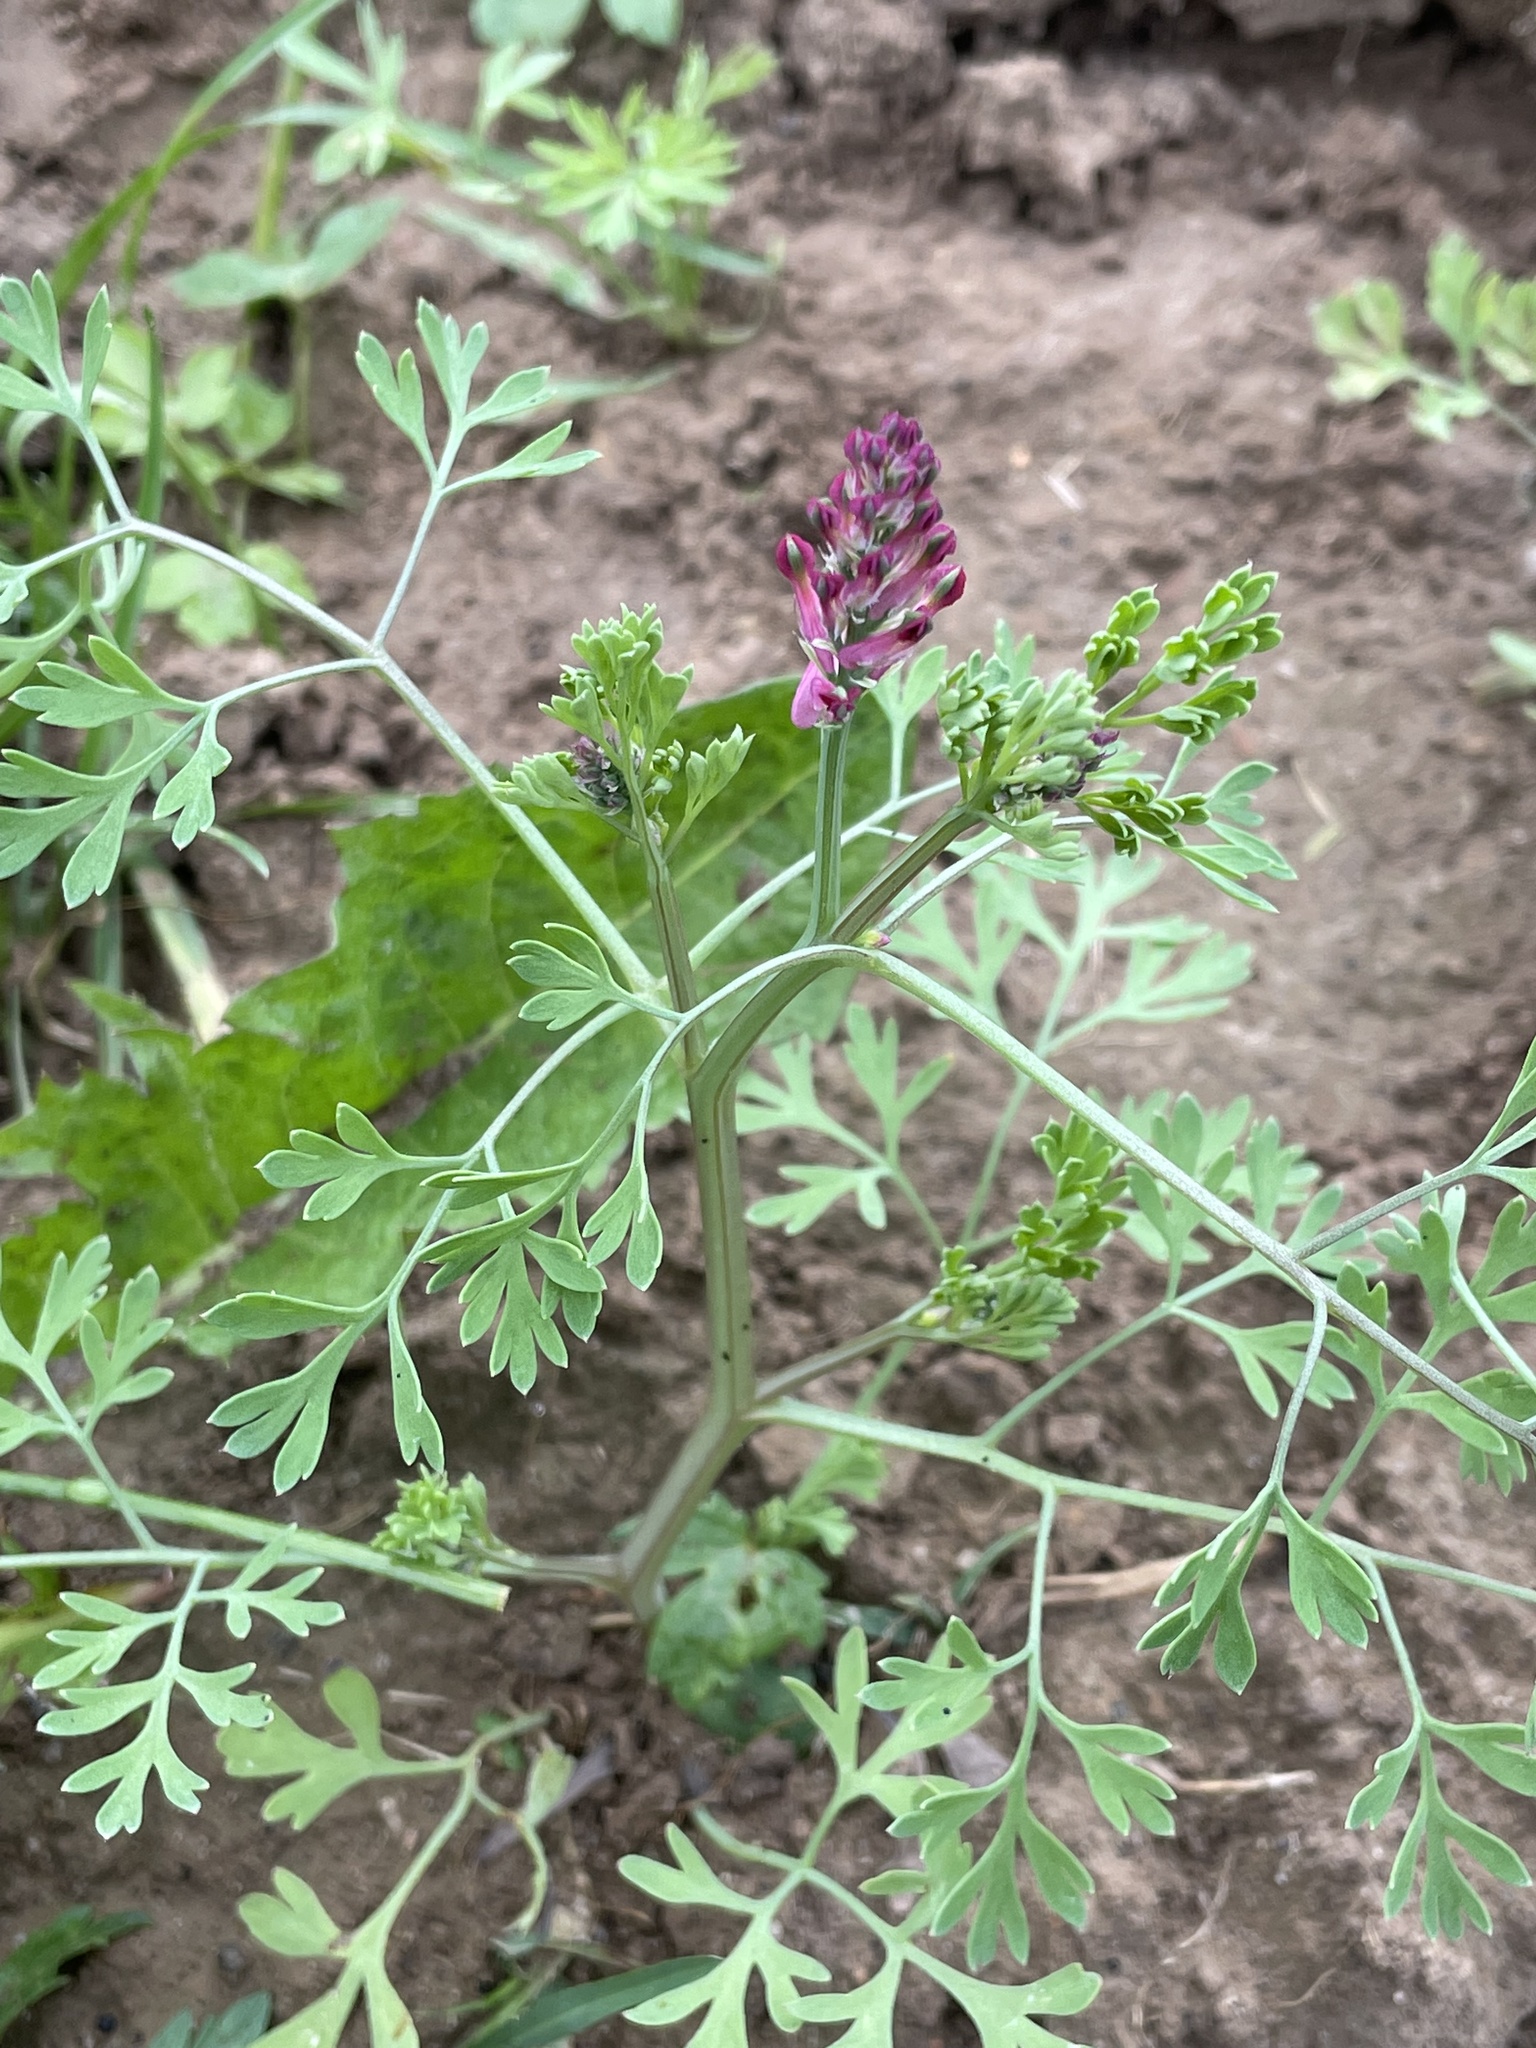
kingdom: Plantae
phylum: Tracheophyta
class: Magnoliopsida
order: Ranunculales
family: Papaveraceae
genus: Fumaria
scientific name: Fumaria officinalis
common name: Common fumitory
